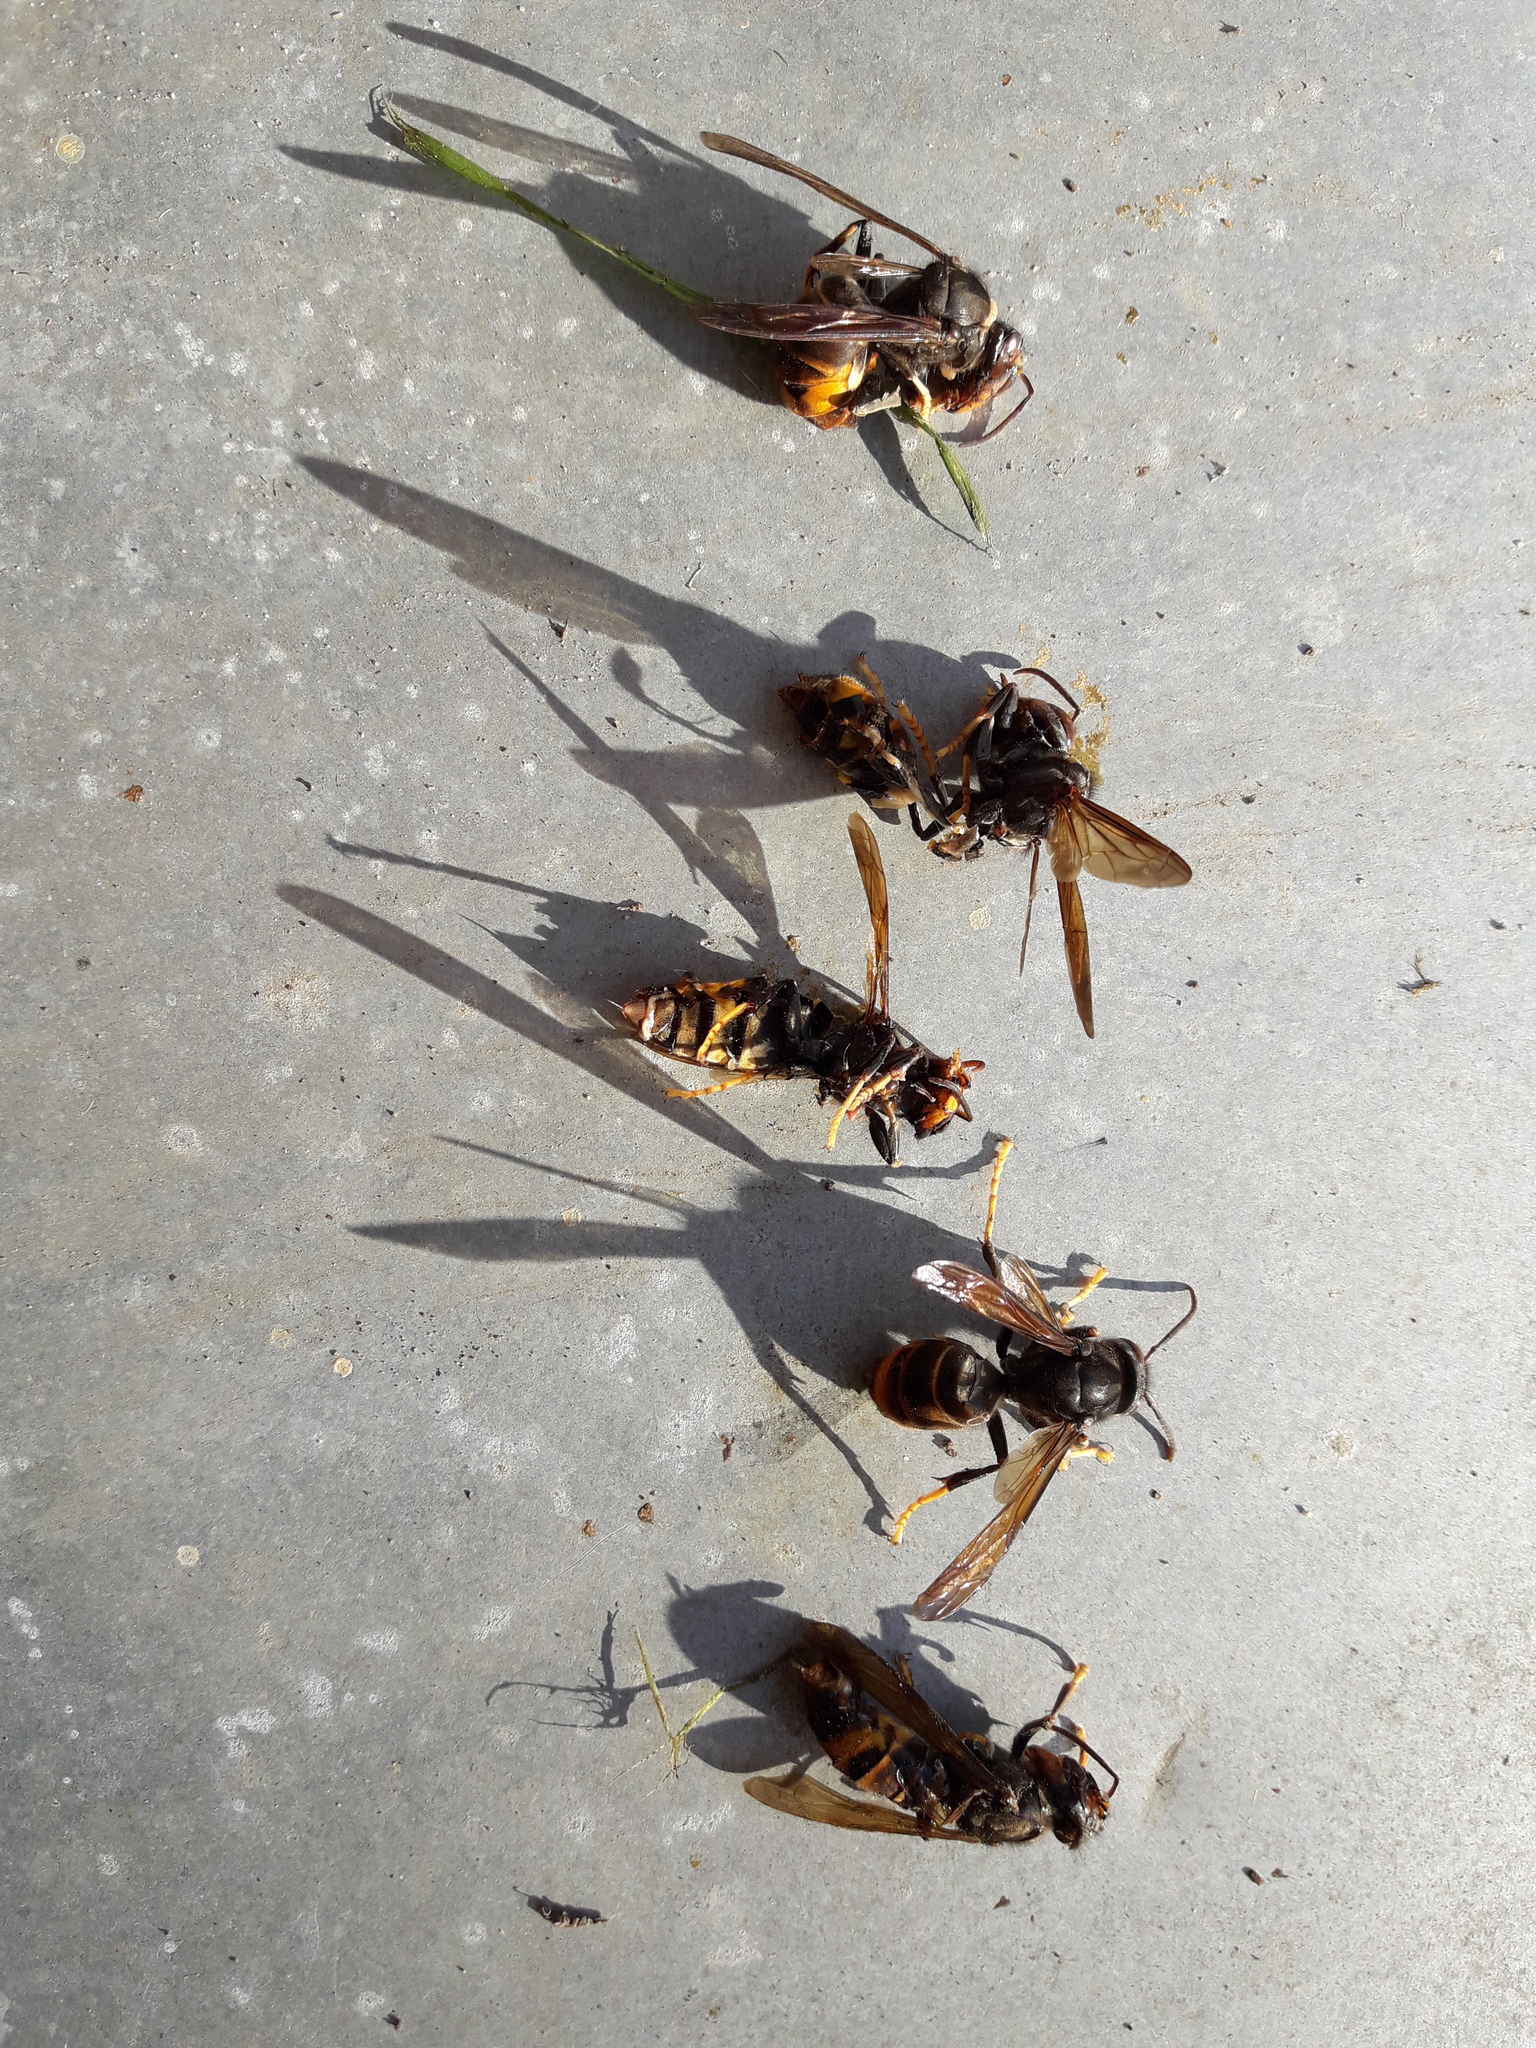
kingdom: Animalia
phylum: Arthropoda
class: Insecta
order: Hymenoptera
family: Vespidae
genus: Vespa
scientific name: Vespa velutina
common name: Asian hornet
